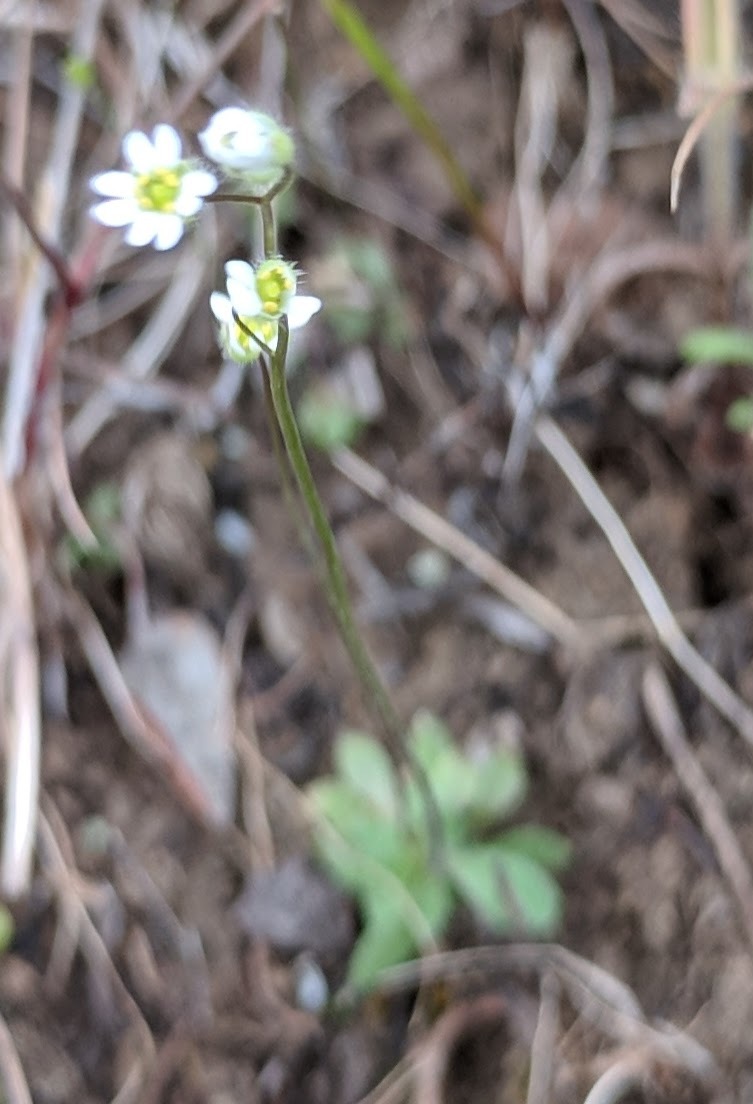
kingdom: Plantae
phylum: Tracheophyta
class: Magnoliopsida
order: Brassicales
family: Brassicaceae
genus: Draba
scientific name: Draba verna
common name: Spring draba
